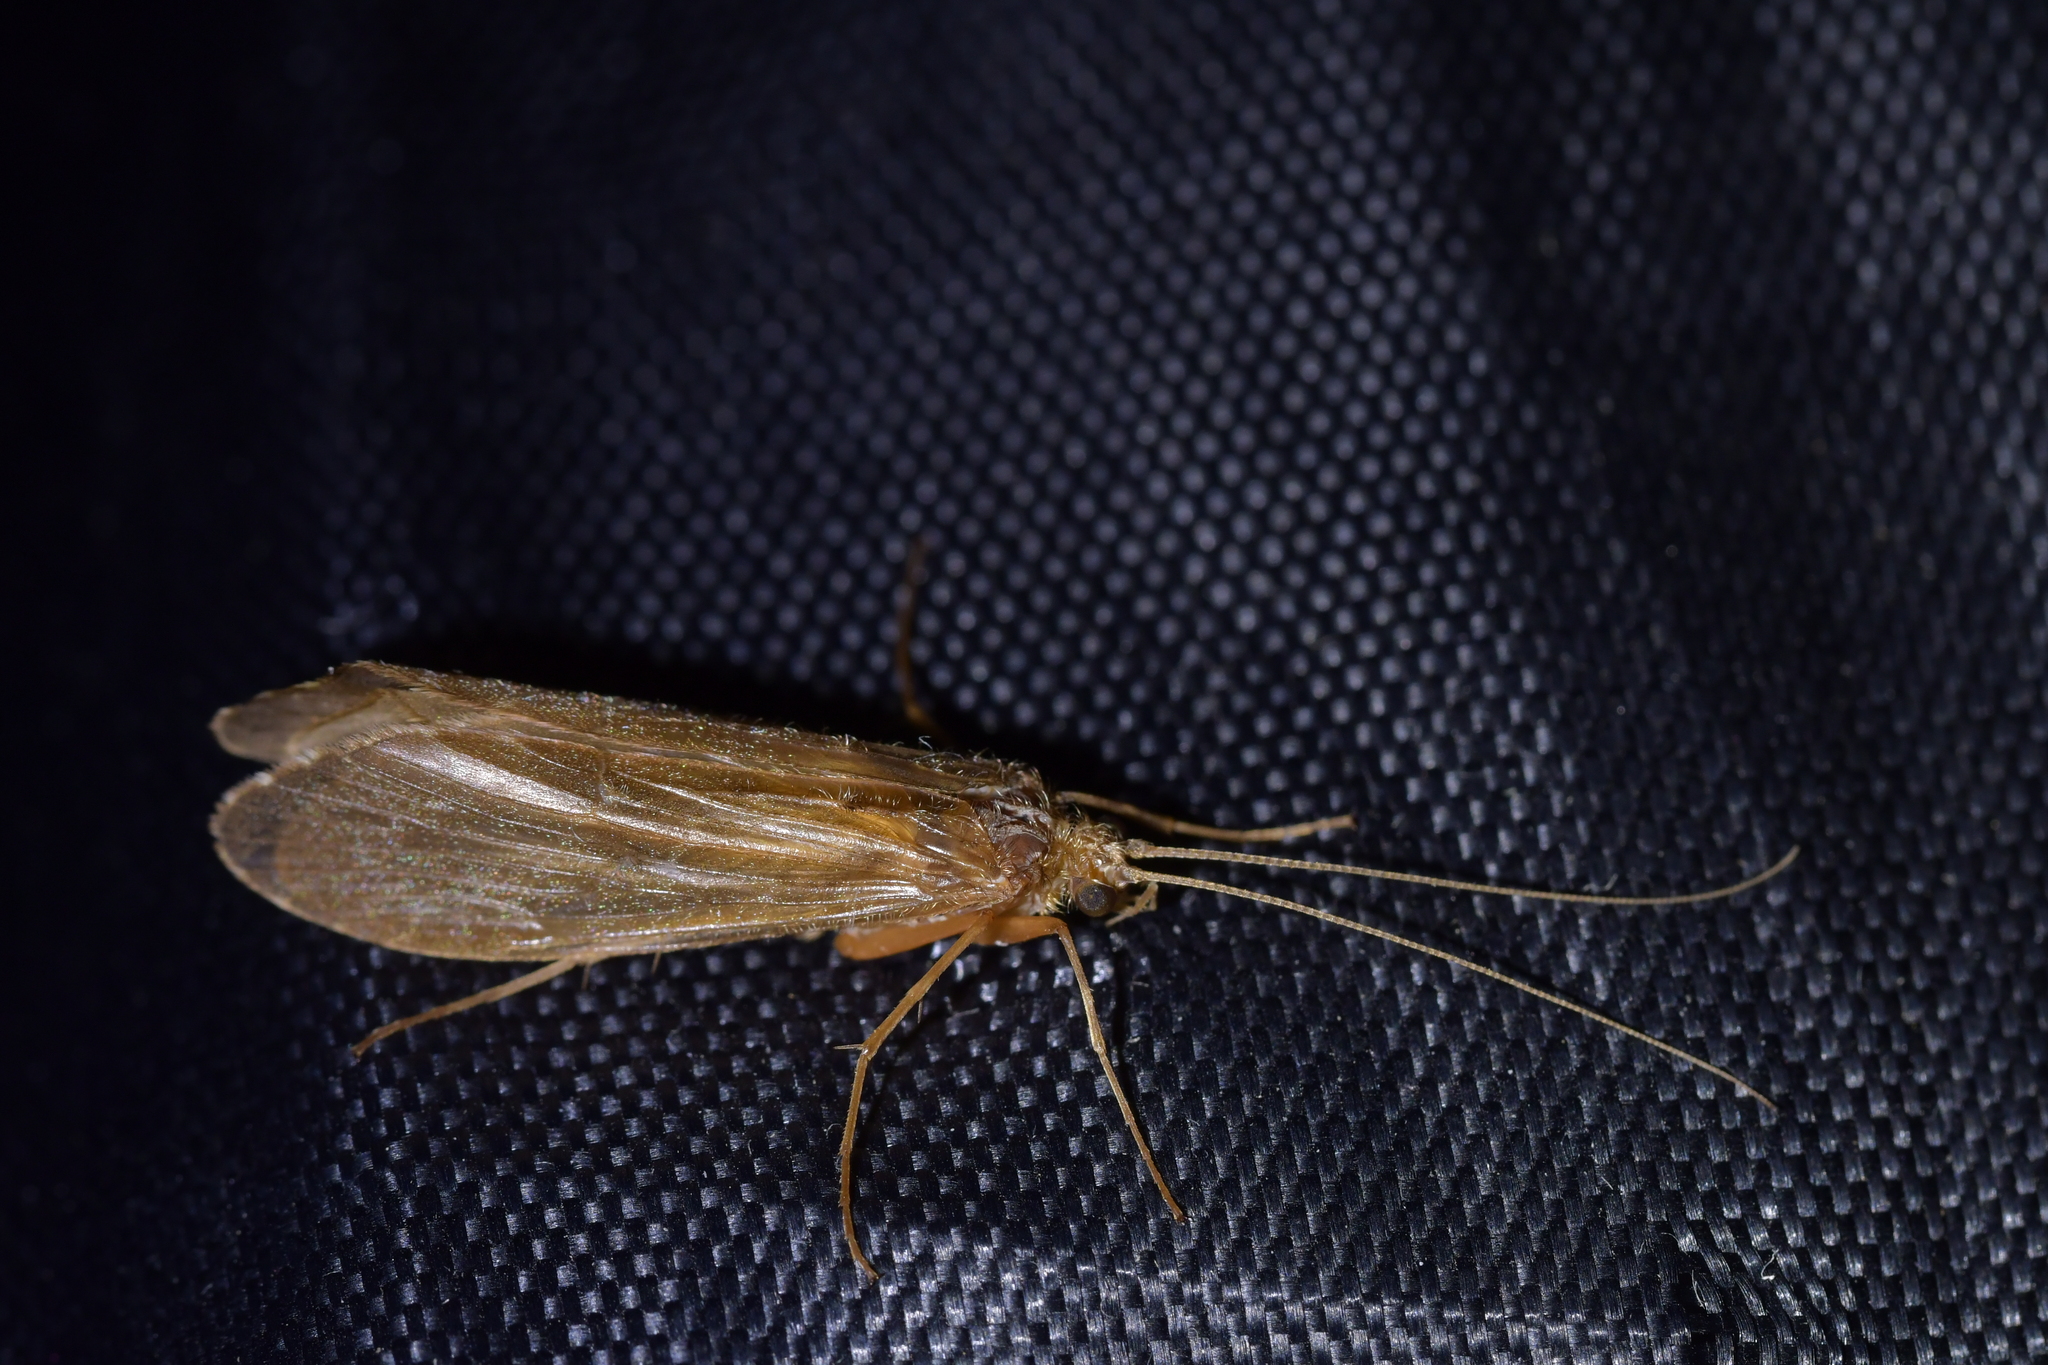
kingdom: Animalia
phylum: Arthropoda
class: Insecta
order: Trichoptera
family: Hydrobiosidae
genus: Costachorema
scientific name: Costachorema xanthopterum
